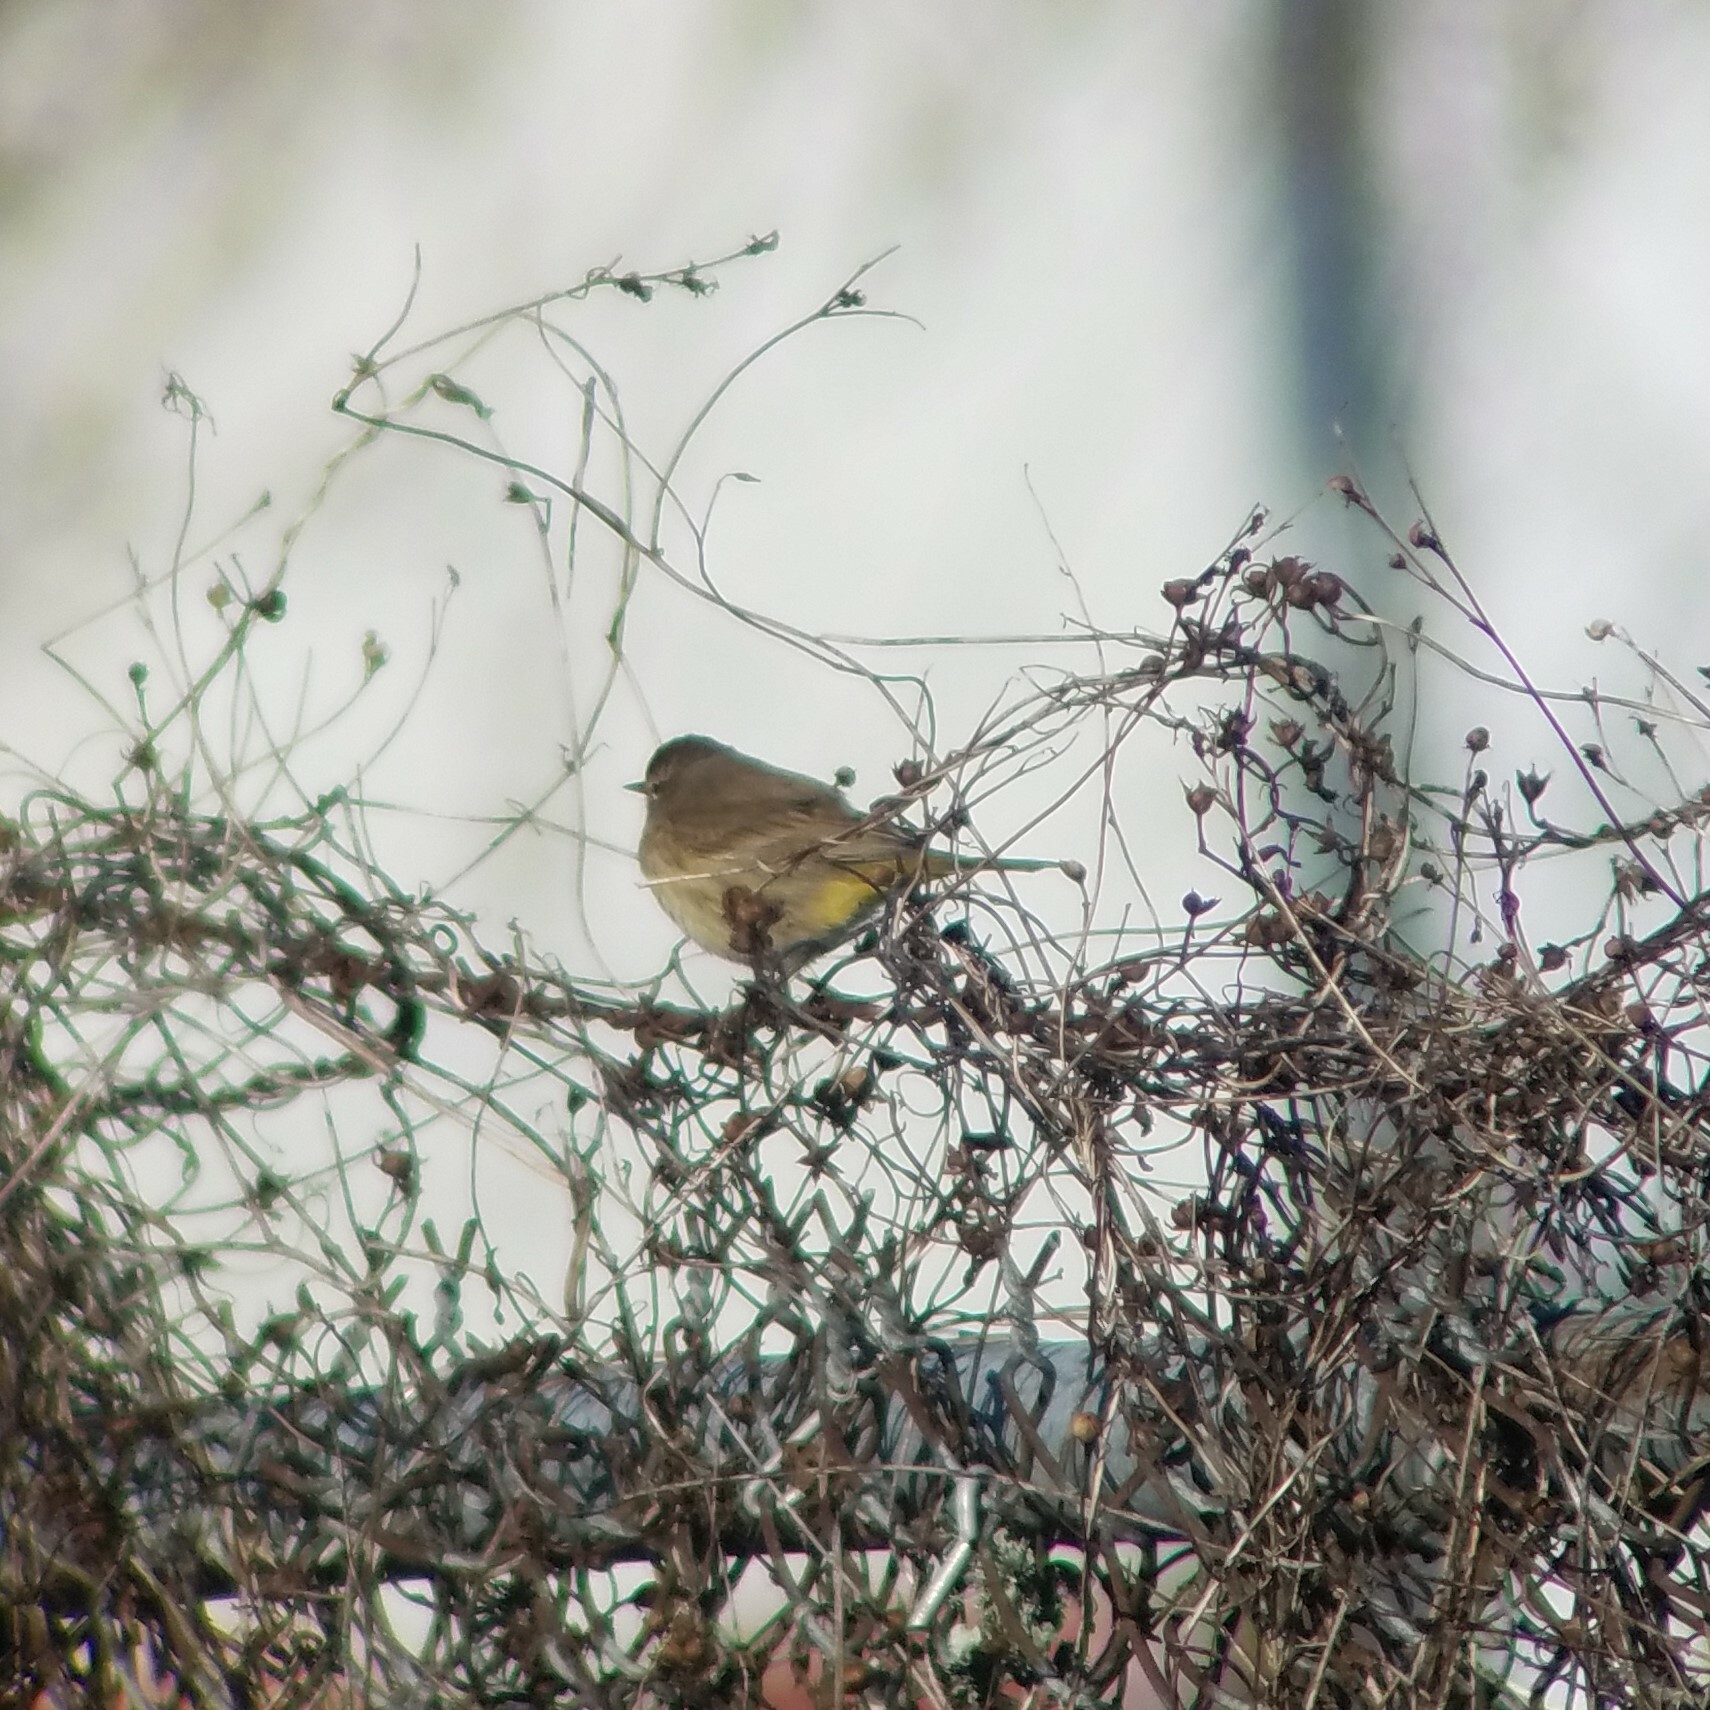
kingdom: Animalia
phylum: Chordata
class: Aves
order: Passeriformes
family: Parulidae
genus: Setophaga
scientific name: Setophaga palmarum
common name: Palm warbler
